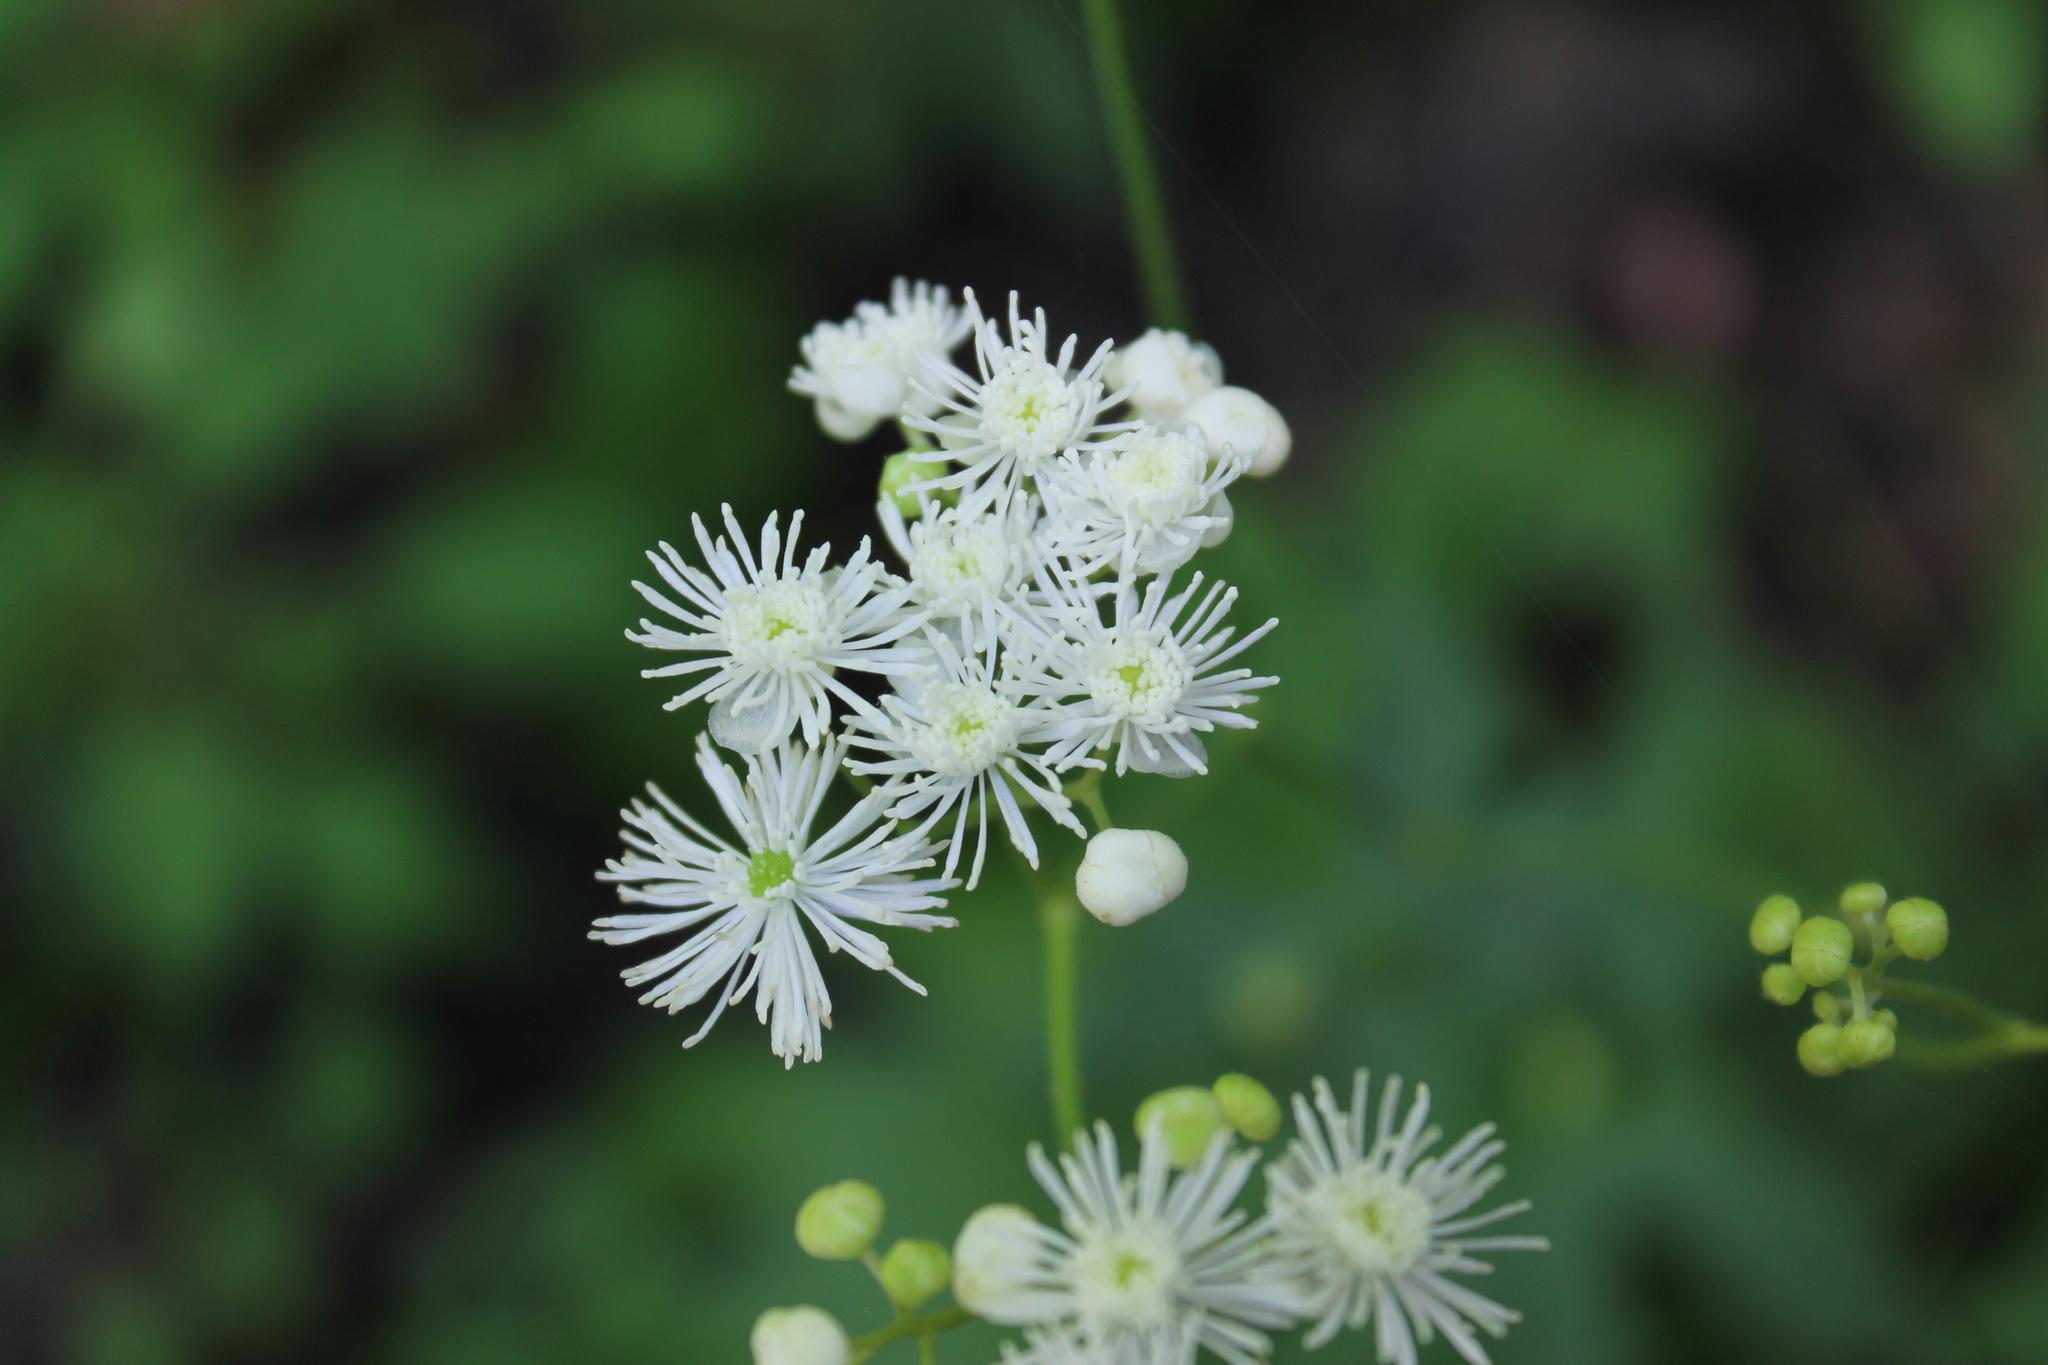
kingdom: Plantae
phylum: Tracheophyta
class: Magnoliopsida
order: Ranunculales
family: Ranunculaceae
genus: Trautvetteria
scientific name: Trautvetteria carolinensis
